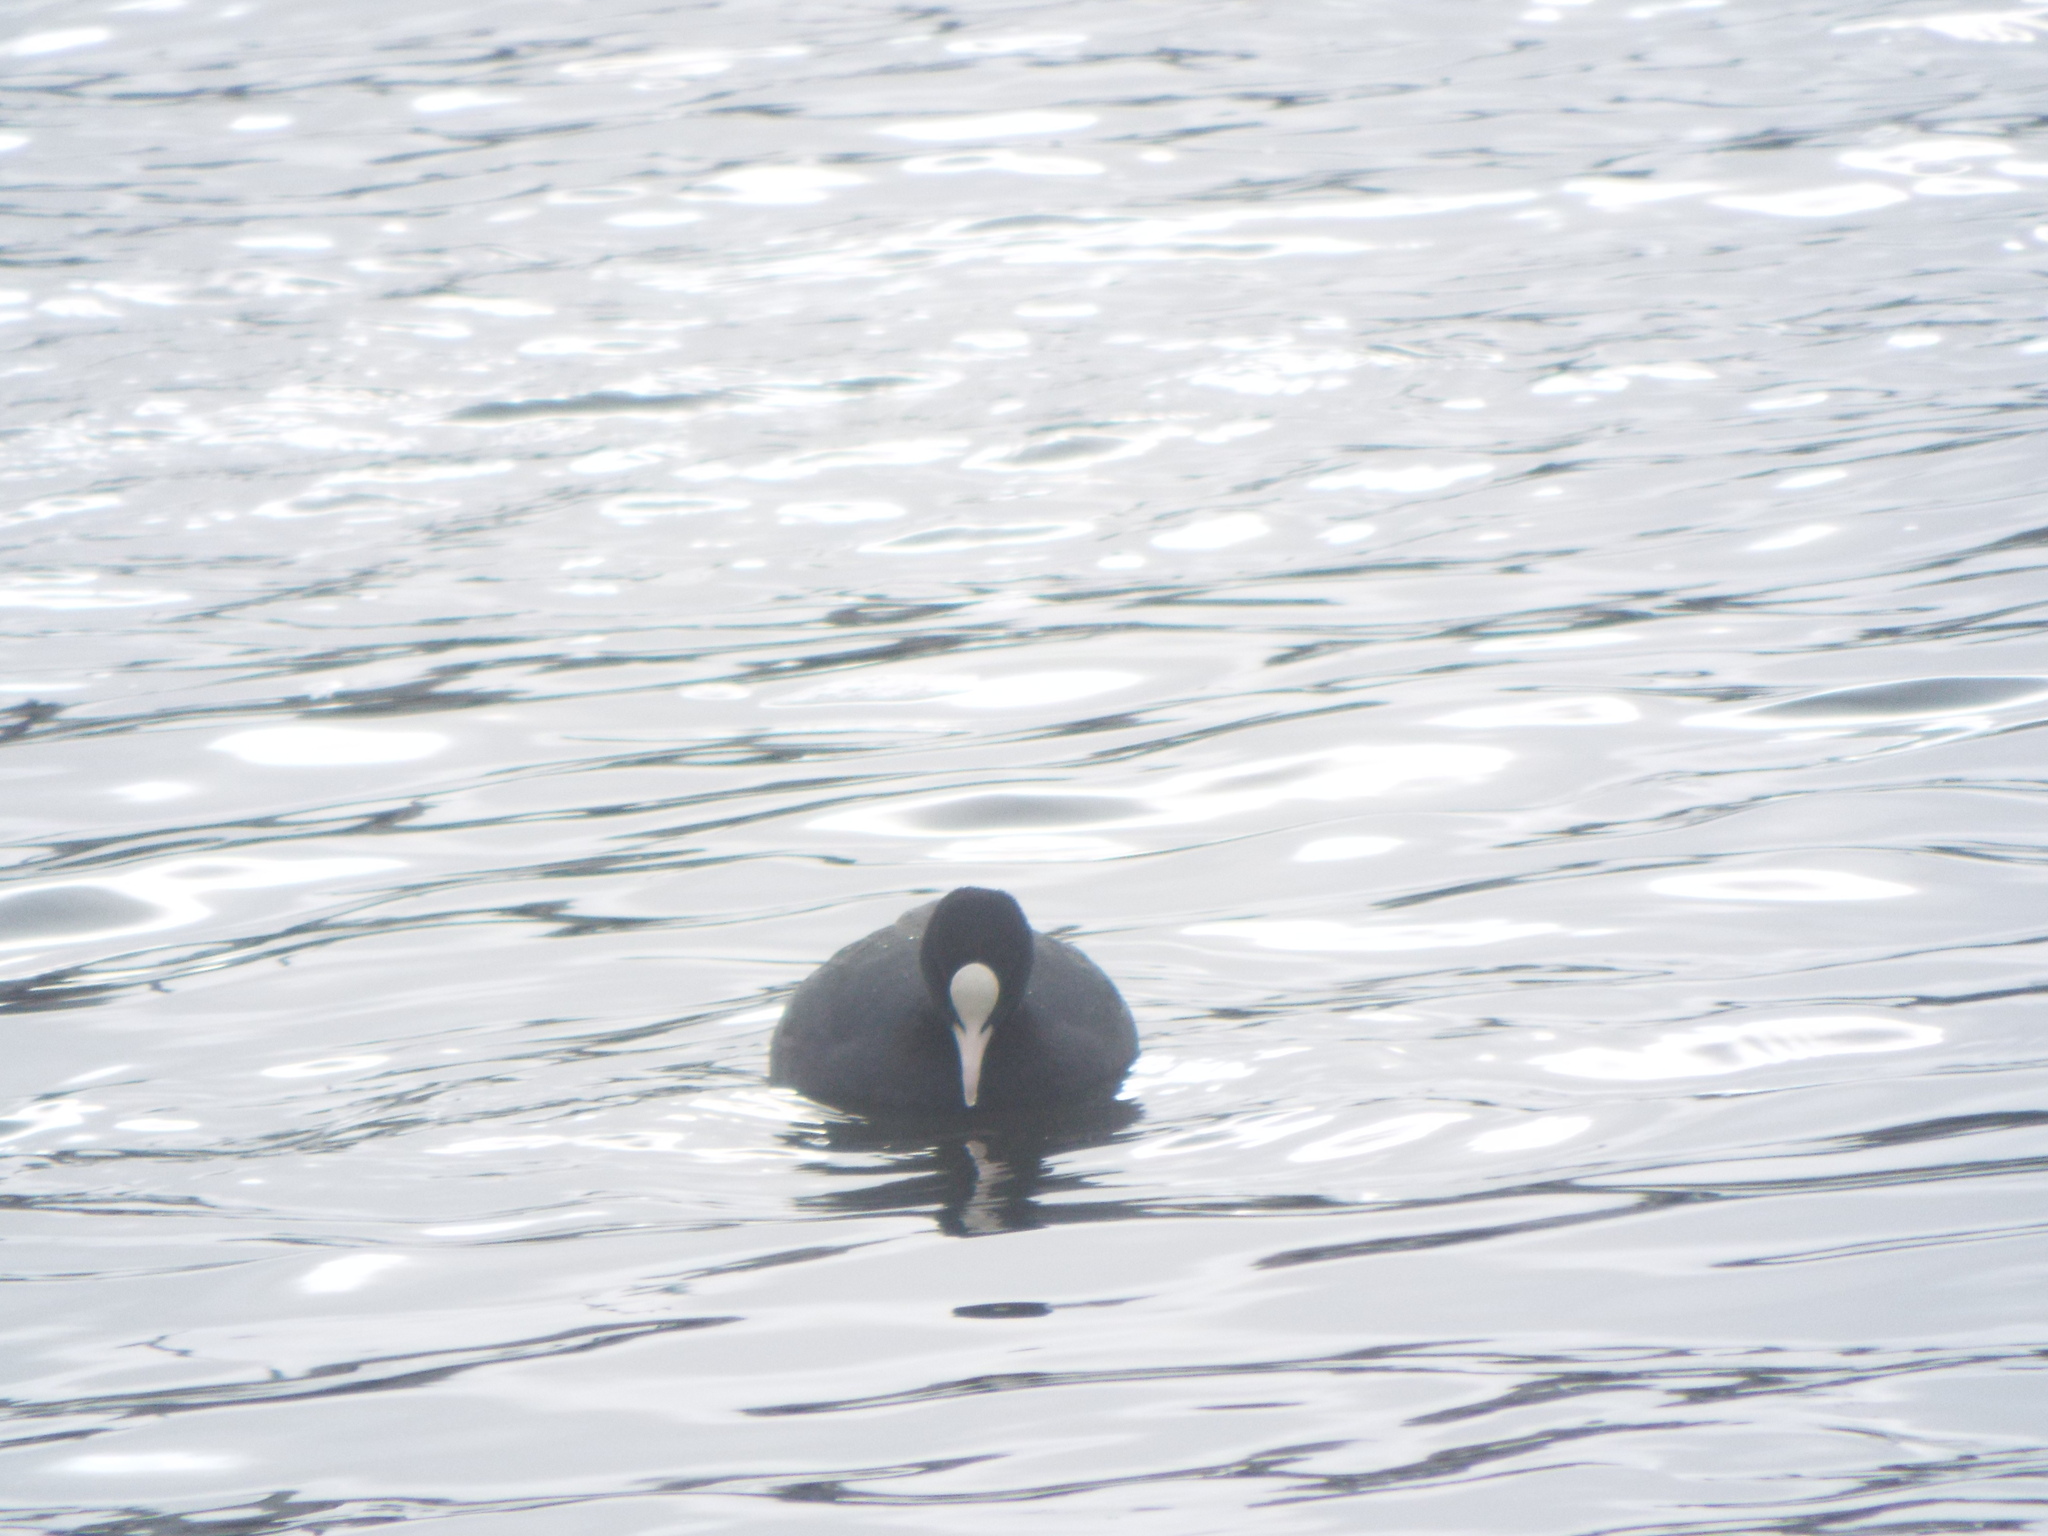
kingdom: Animalia
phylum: Chordata
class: Aves
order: Gruiformes
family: Rallidae
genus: Fulica
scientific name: Fulica atra
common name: Eurasian coot
